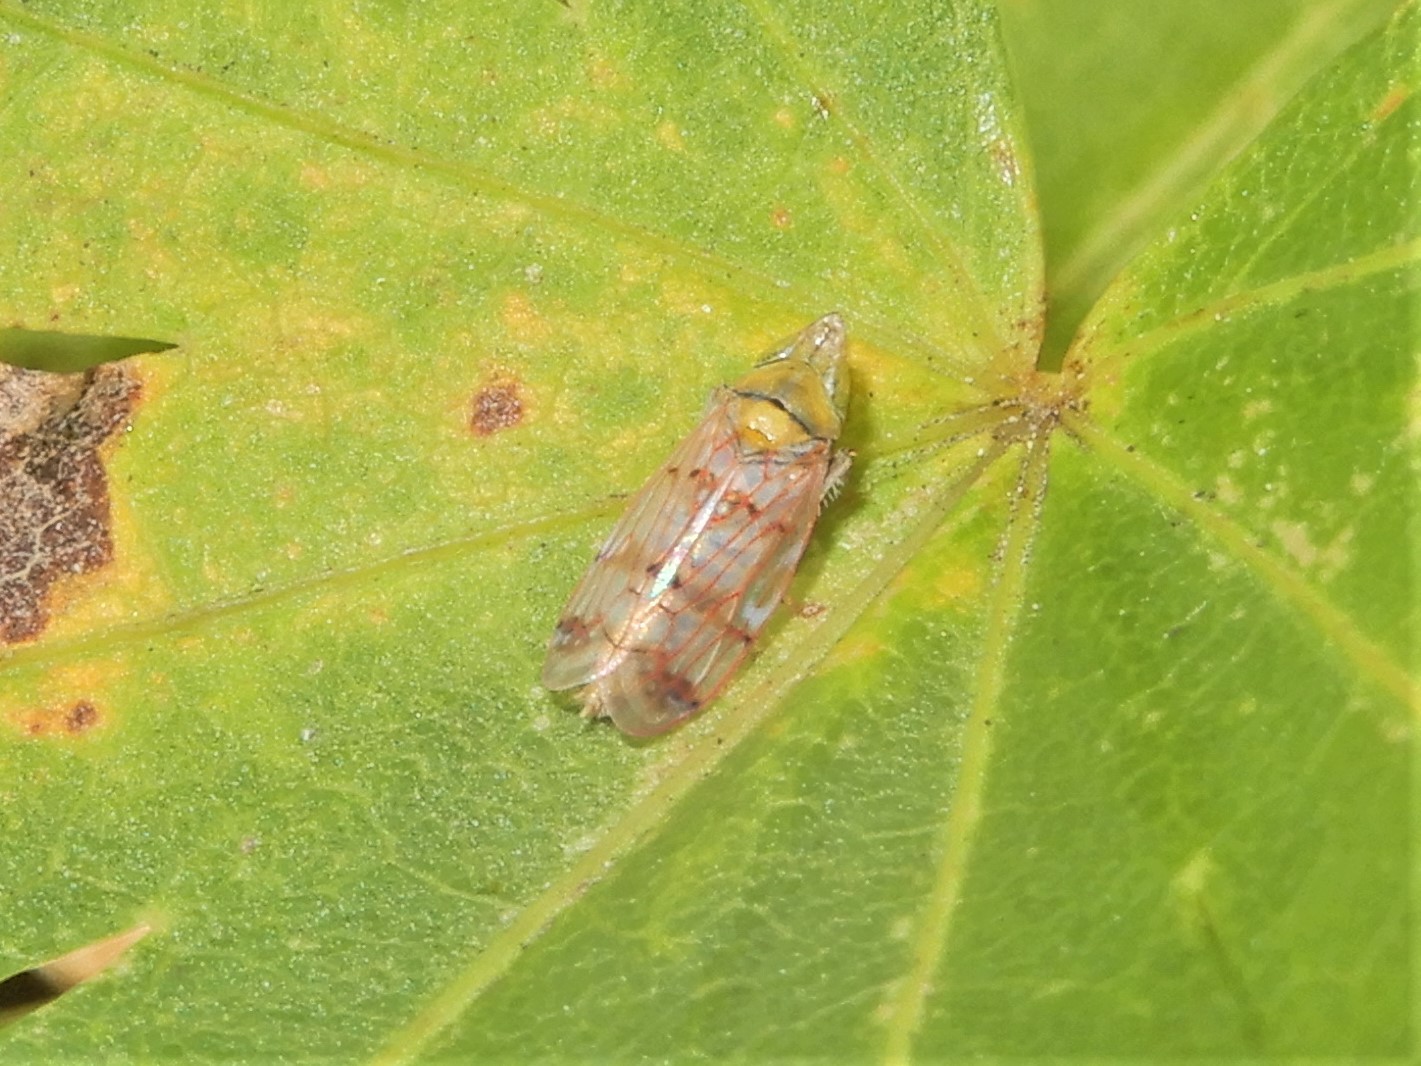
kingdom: Animalia
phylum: Arthropoda
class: Insecta
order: Hemiptera
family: Cicadellidae
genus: Japananus
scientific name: Japananus hyalinus
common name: The japanese maple leafhopper
